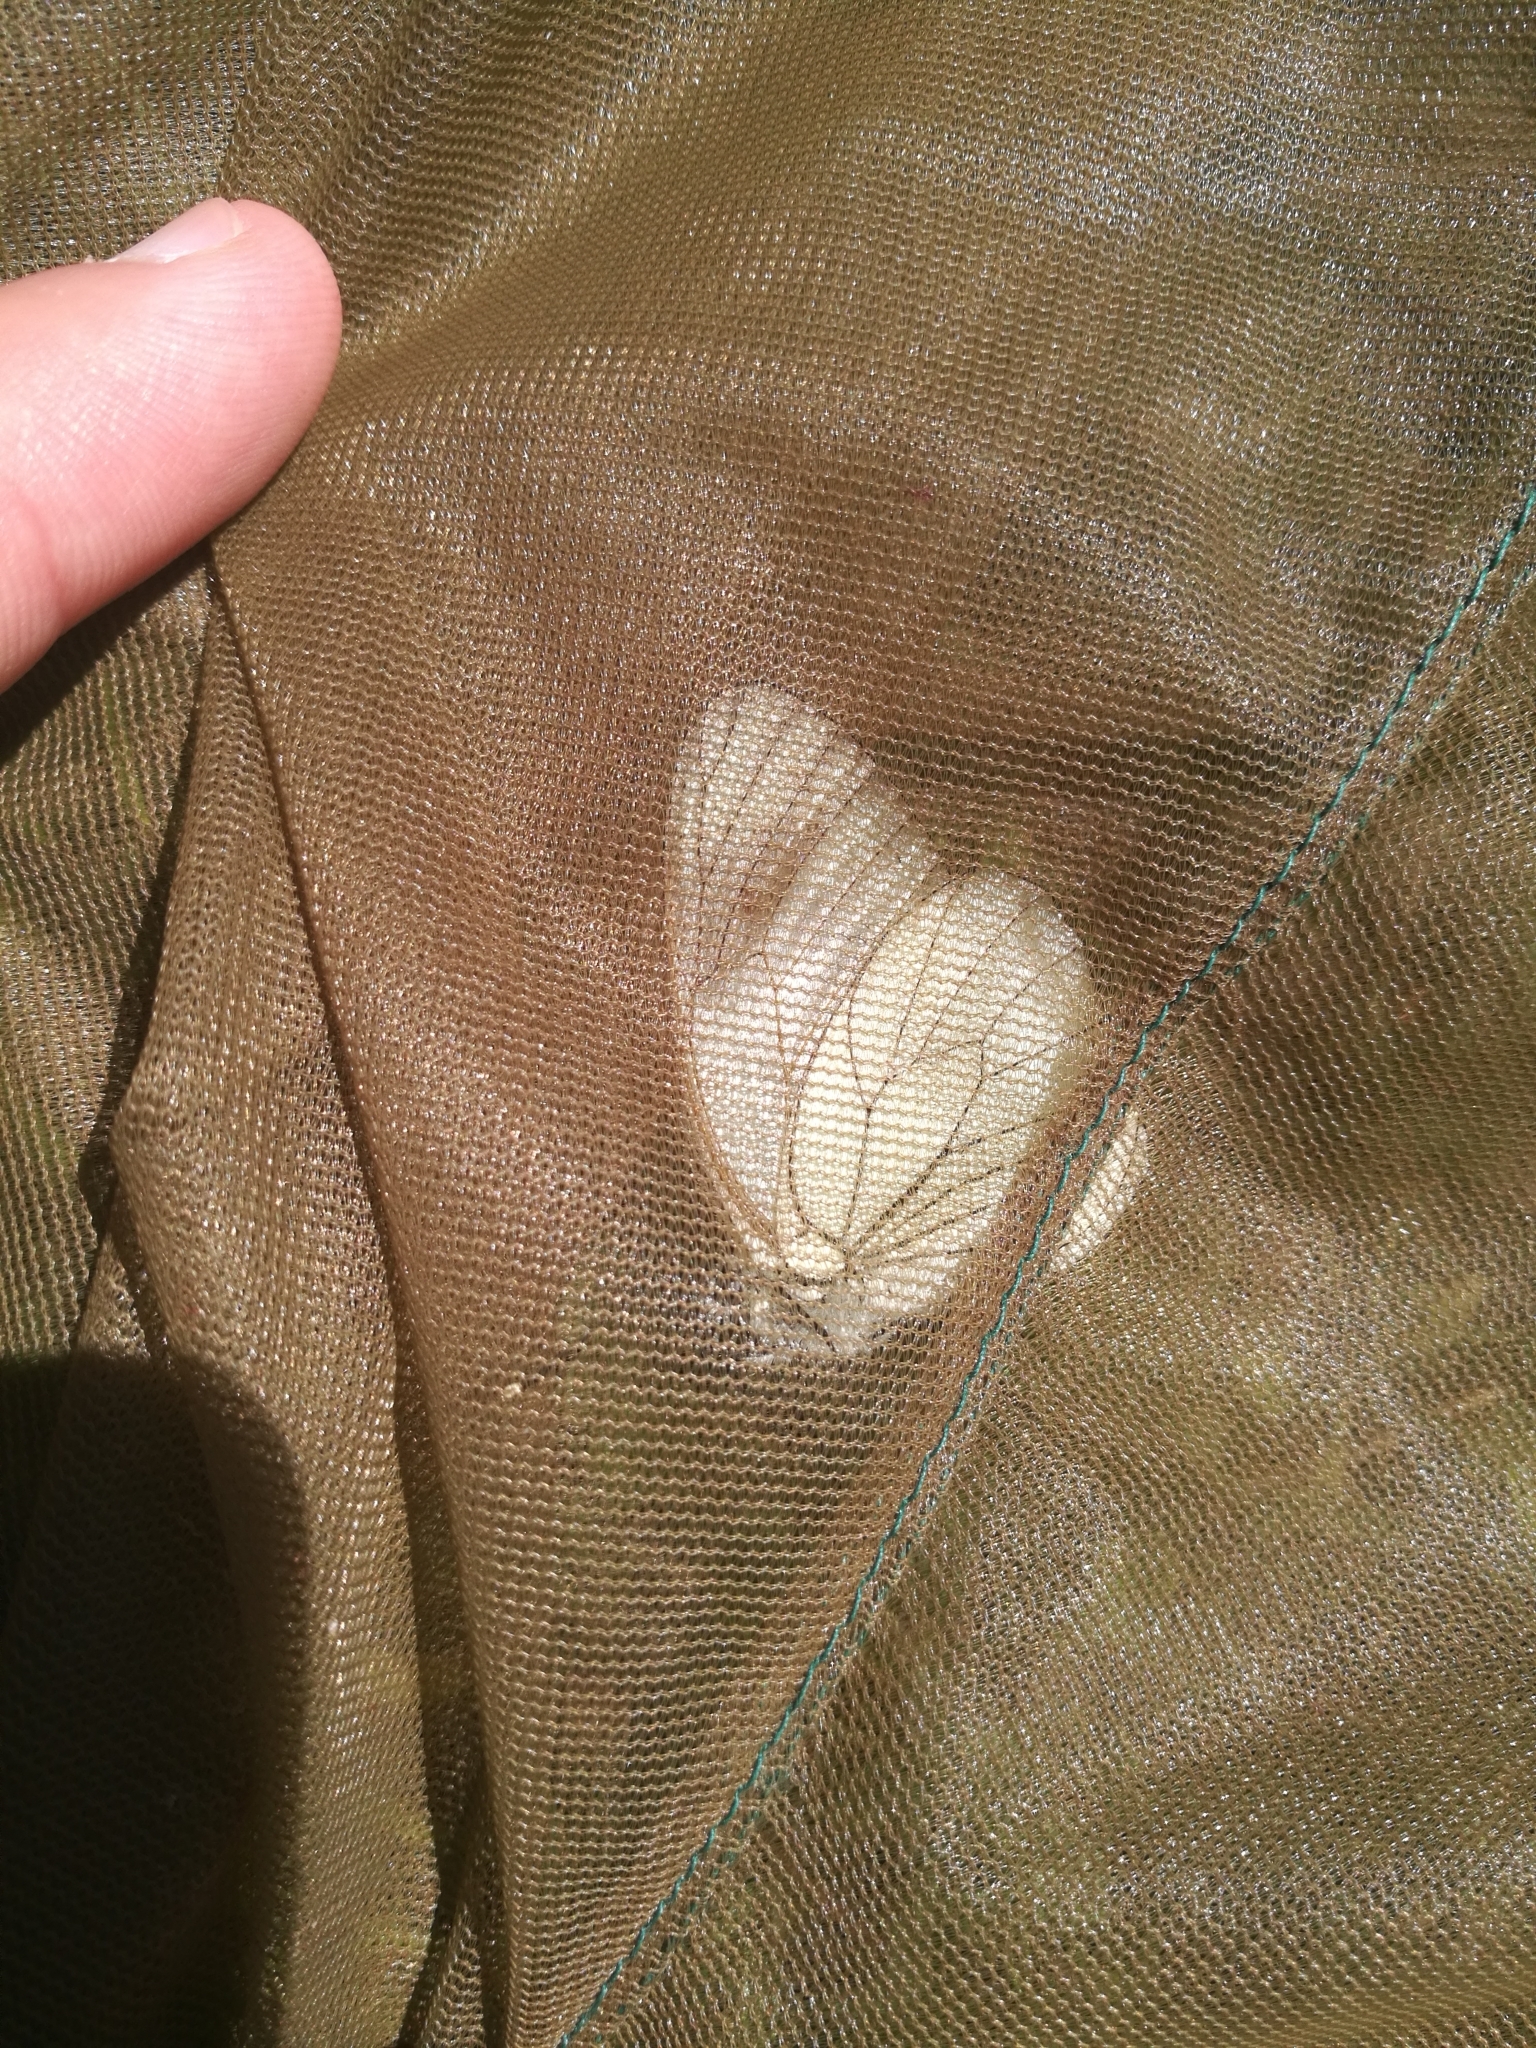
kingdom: Animalia
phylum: Arthropoda
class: Insecta
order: Lepidoptera
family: Pieridae
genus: Aporia
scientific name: Aporia crataegi
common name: Black-veined white
